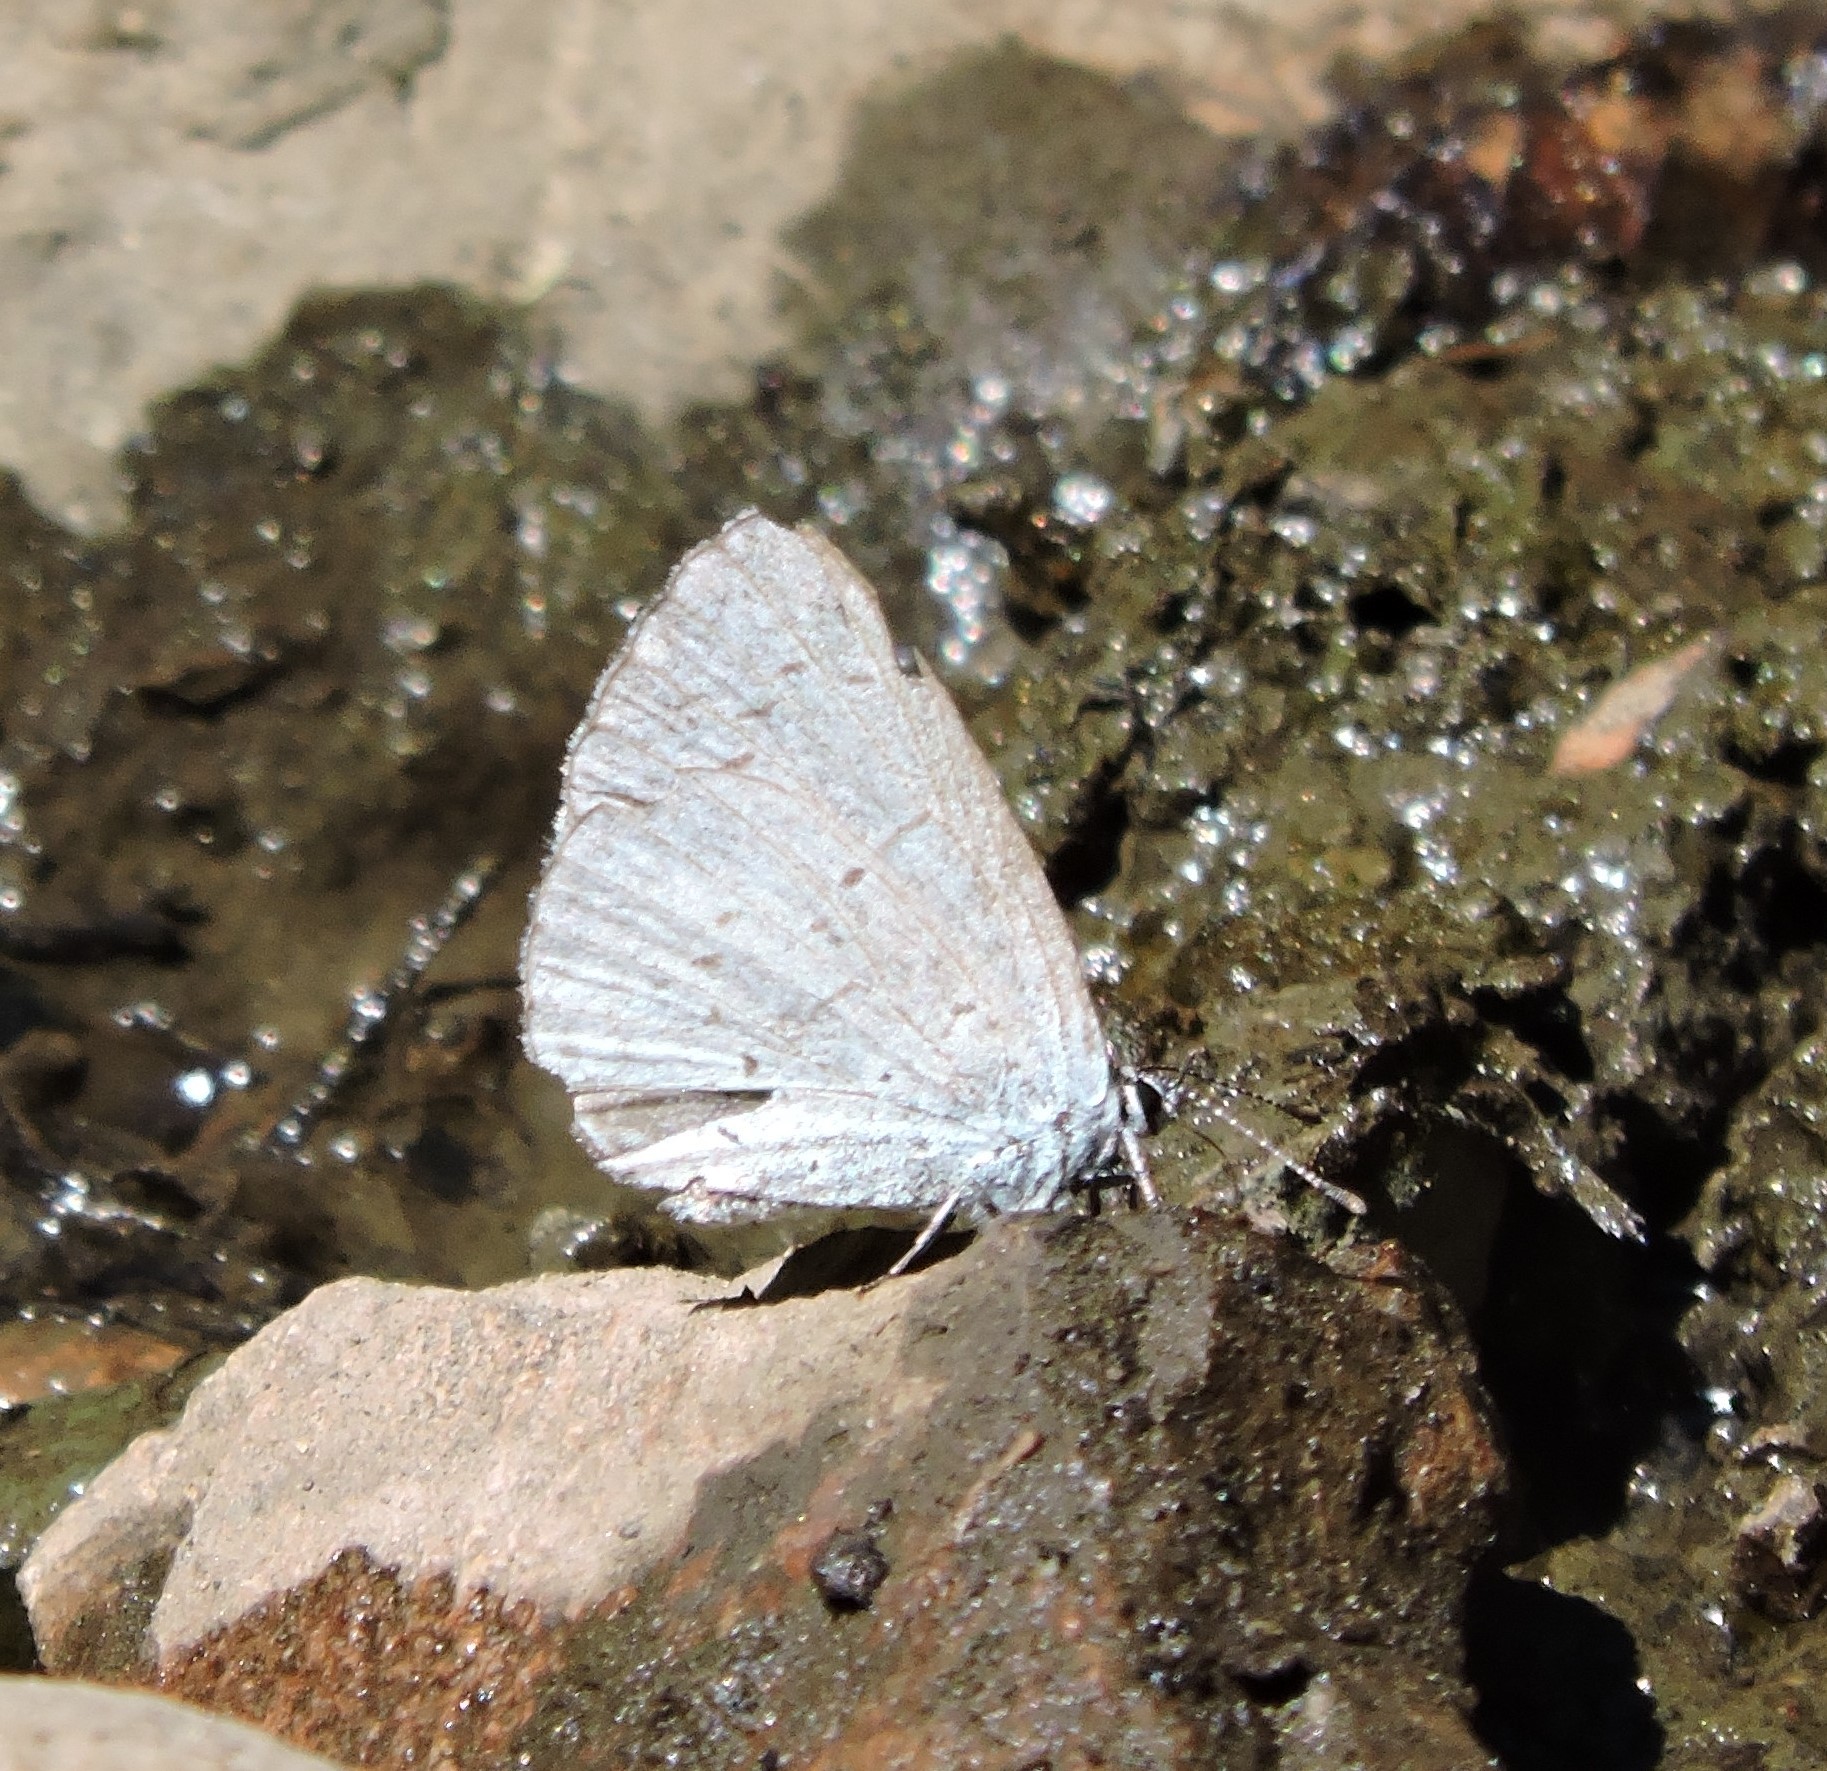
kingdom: Animalia
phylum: Arthropoda
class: Insecta
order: Lepidoptera
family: Lycaenidae
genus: Celastrina
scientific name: Celastrina ladon
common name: Spring azure
